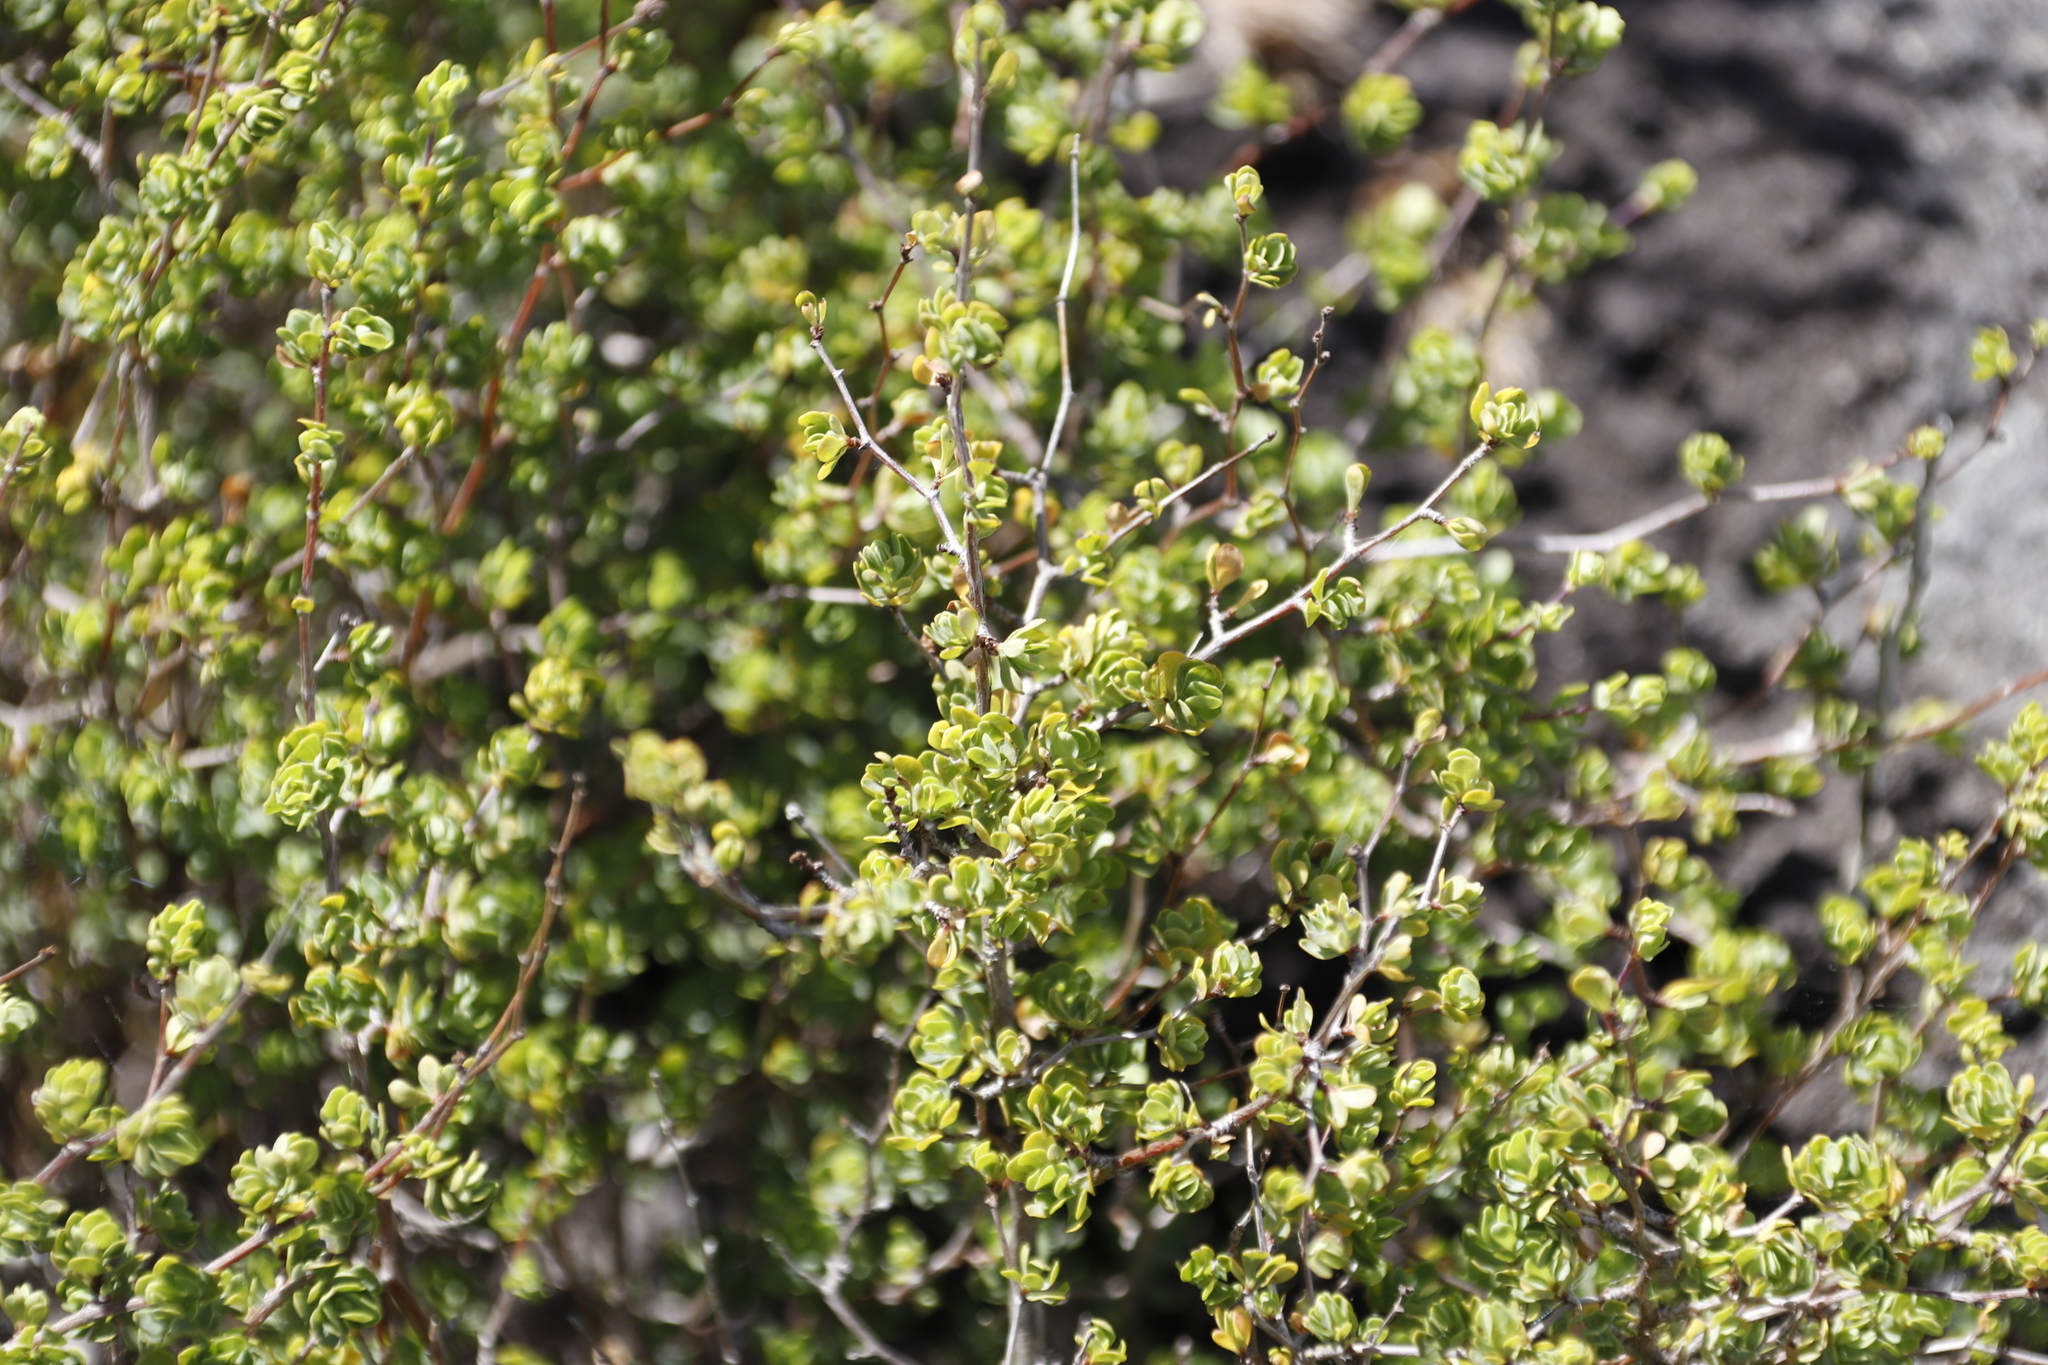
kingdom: Plantae
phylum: Tracheophyta
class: Magnoliopsida
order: Rosales
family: Rosaceae
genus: Cliffortia
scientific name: Cliffortia obovata
